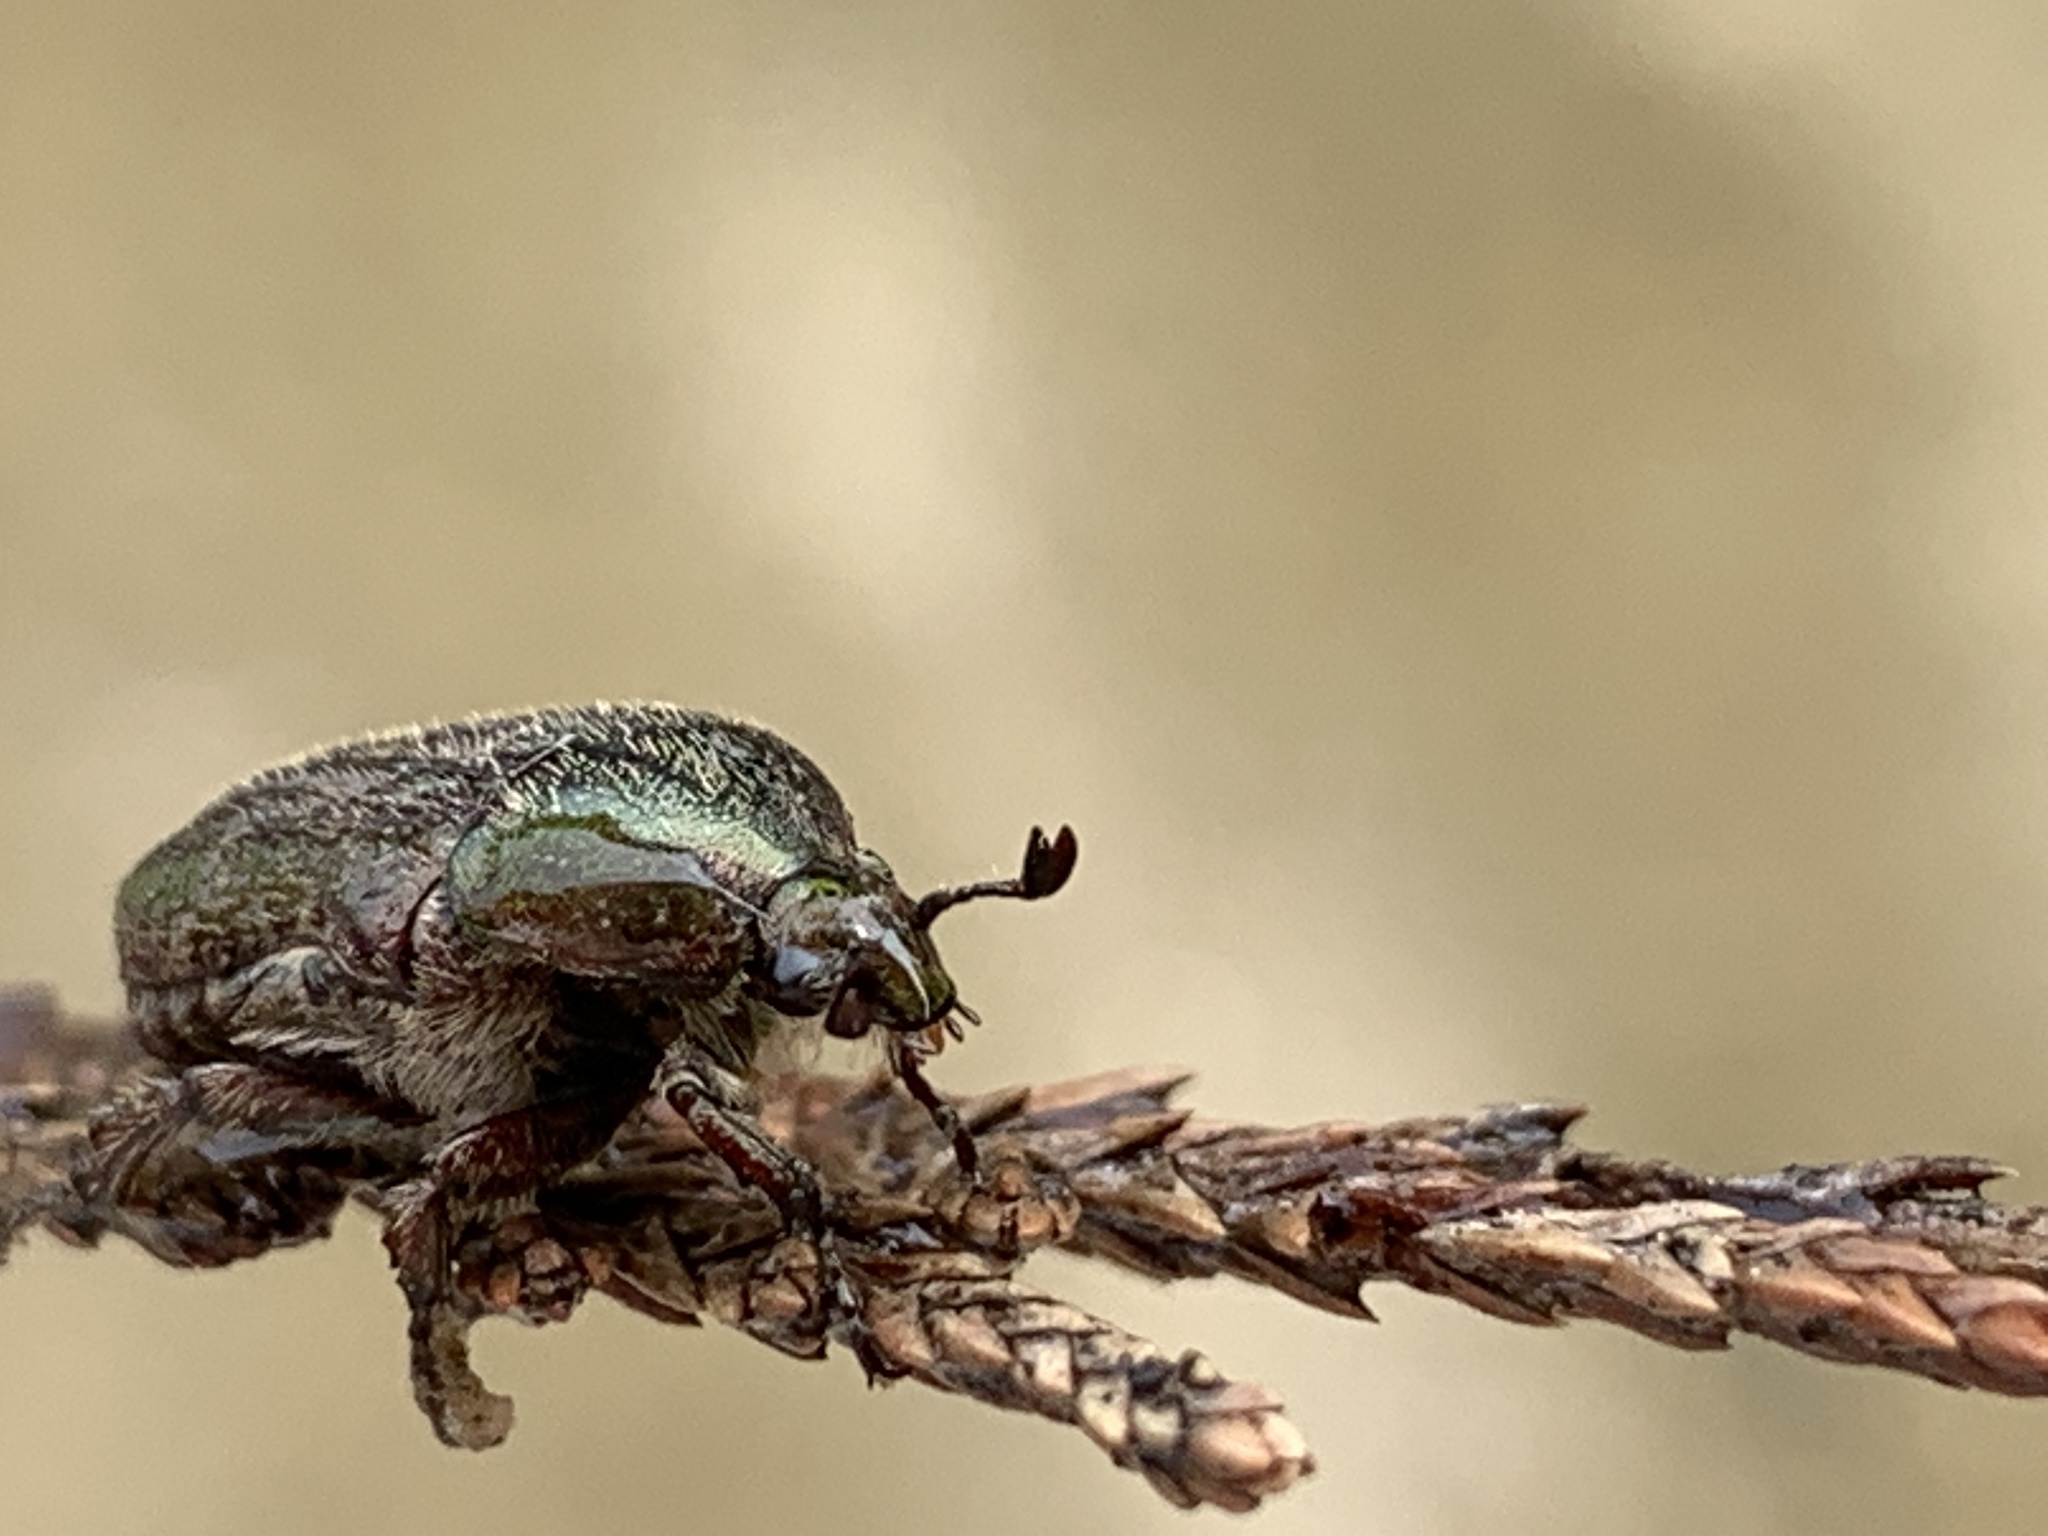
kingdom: Animalia
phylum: Arthropoda
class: Insecta
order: Coleoptera
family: Scarabaeidae
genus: Euphoria
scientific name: Euphoria sepulcralis
